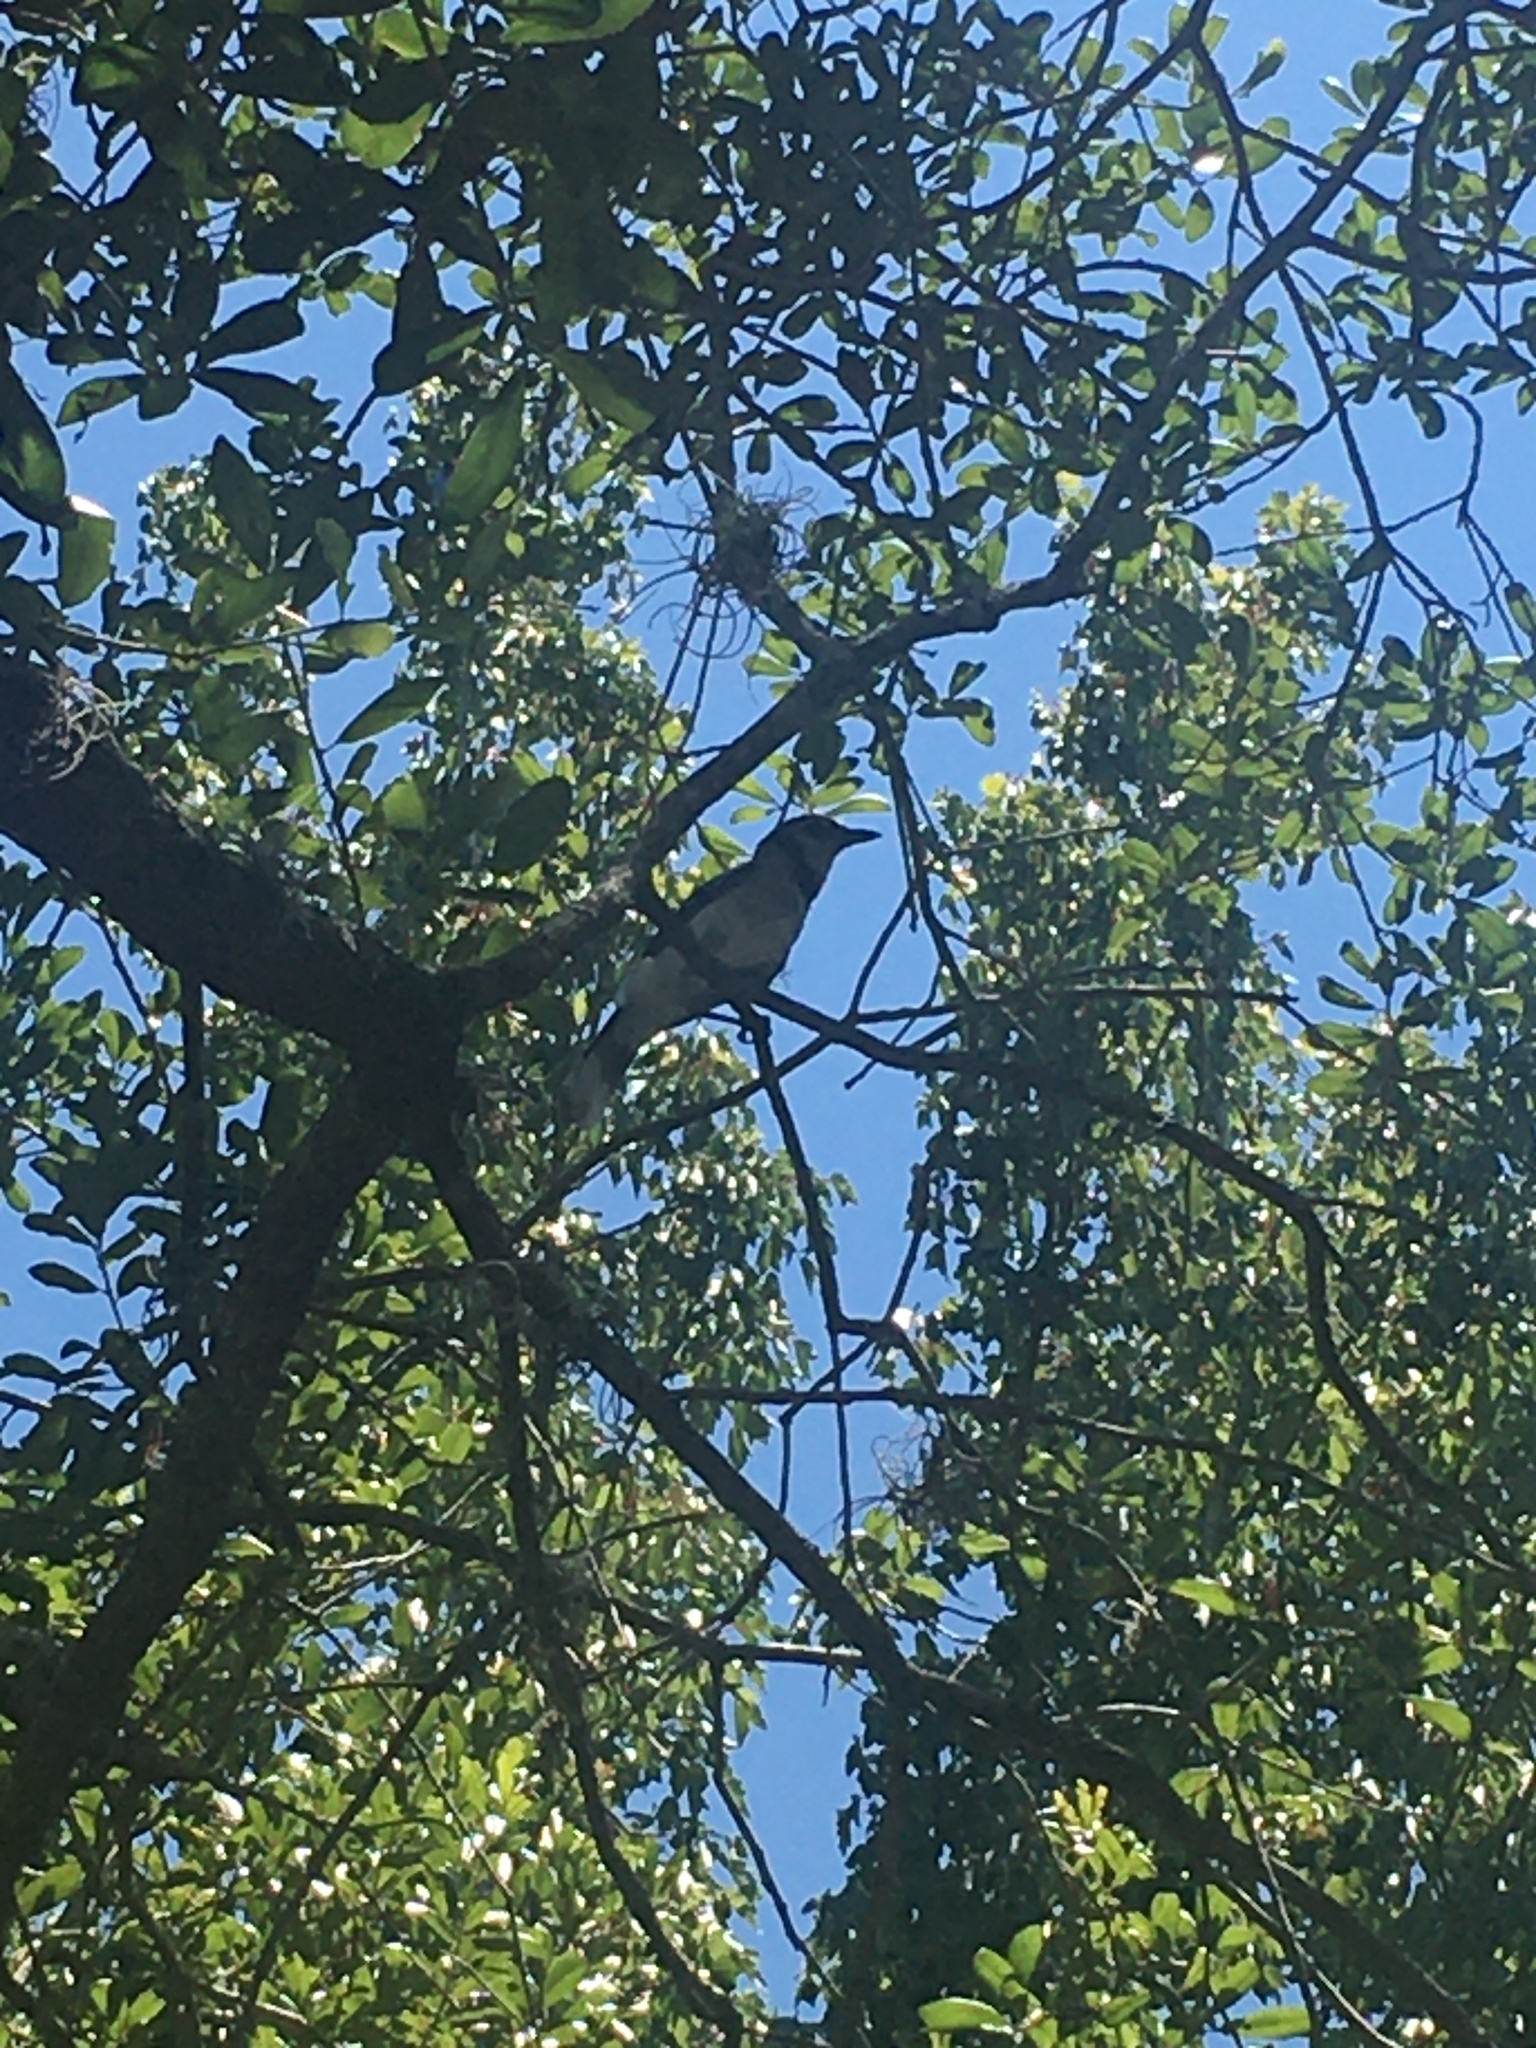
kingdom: Animalia
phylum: Chordata
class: Aves
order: Passeriformes
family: Corvidae
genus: Cyanocitta
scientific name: Cyanocitta cristata
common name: Blue jay
